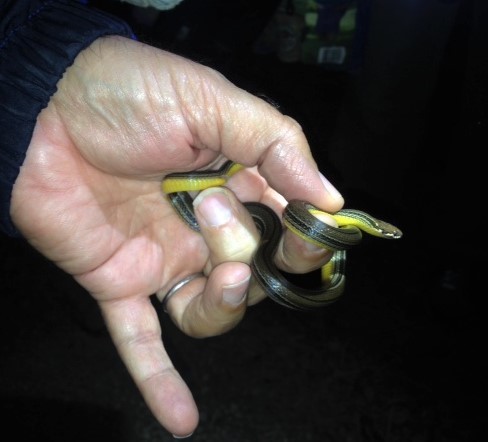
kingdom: Animalia
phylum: Chordata
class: Squamata
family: Colubridae
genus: Rhadinella
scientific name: Rhadinella godmani
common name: Godman's graceful brown snake
